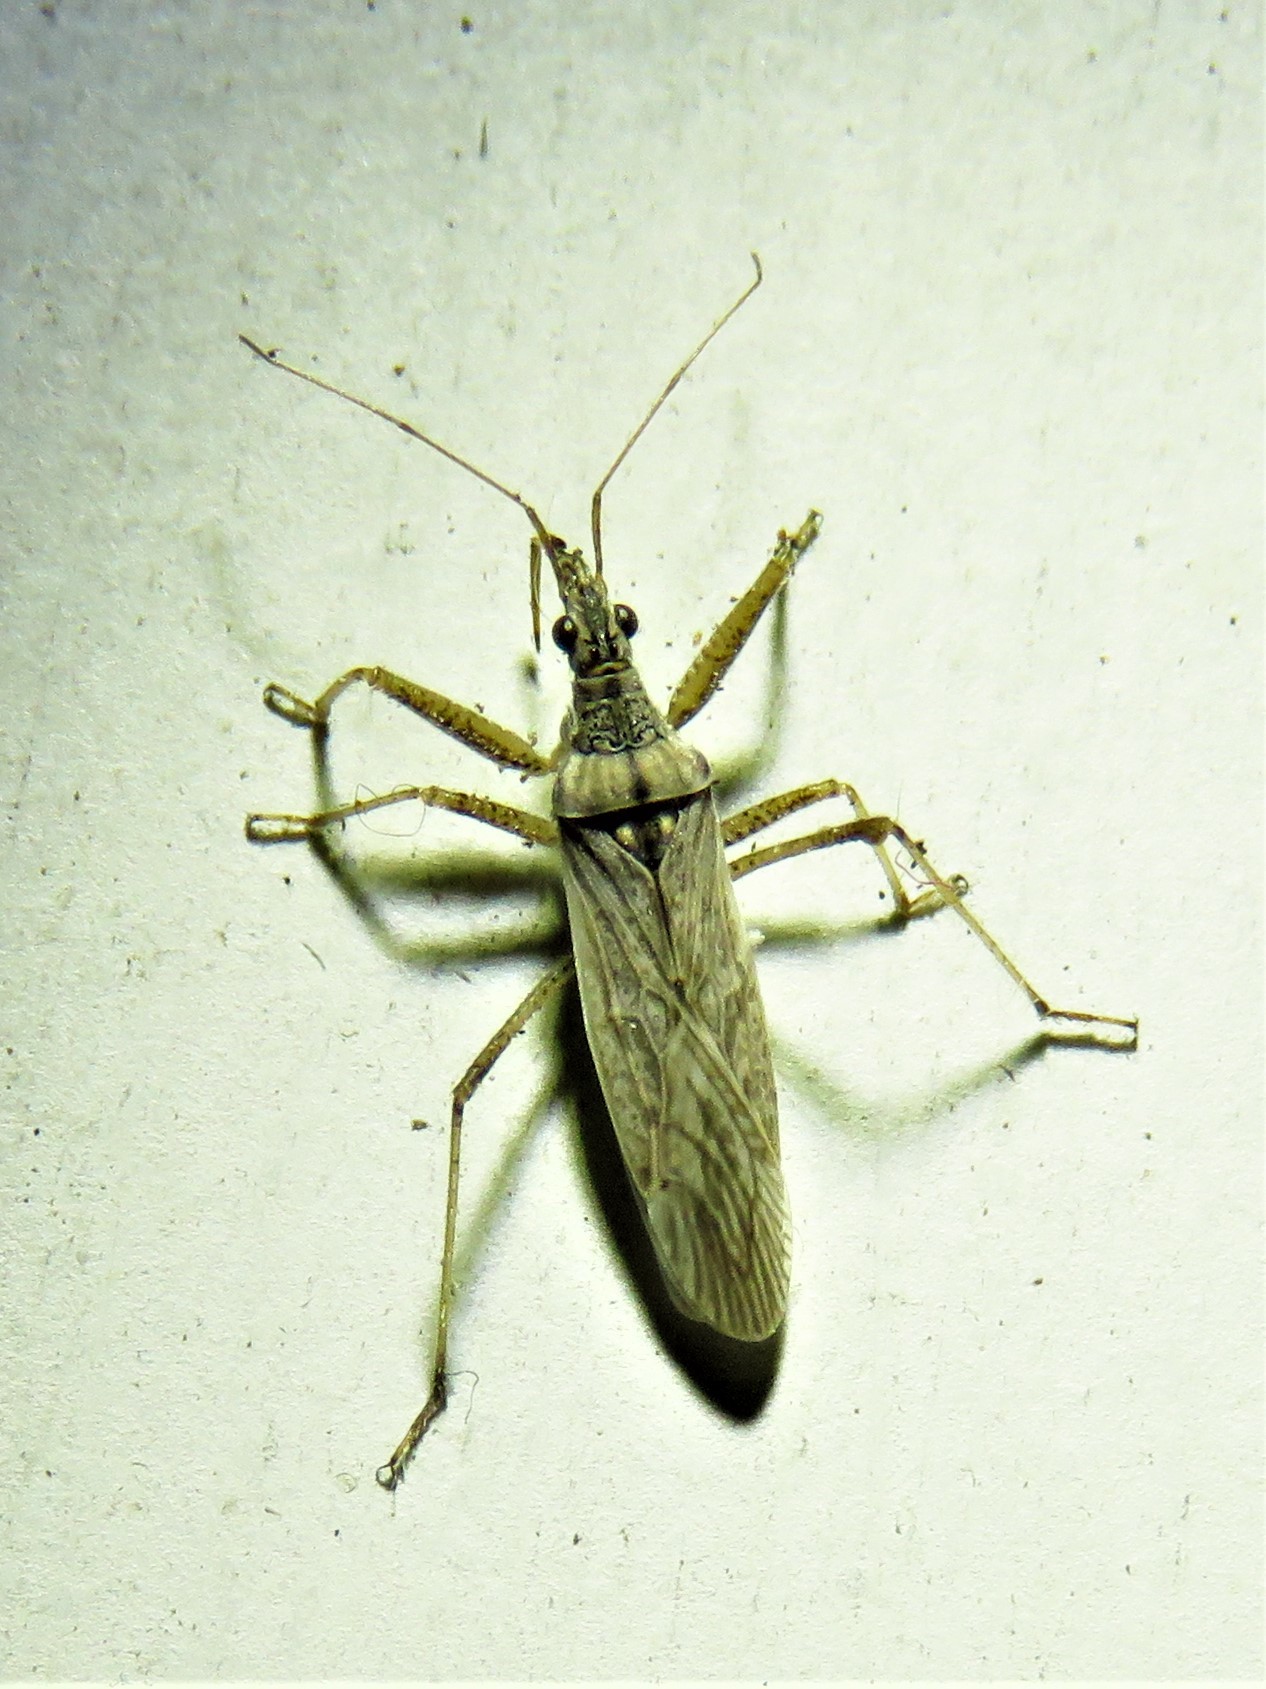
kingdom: Animalia
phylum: Arthropoda
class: Insecta
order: Hemiptera
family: Nabidae
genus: Nabis
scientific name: Nabis americoferus
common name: Common damsel bug
